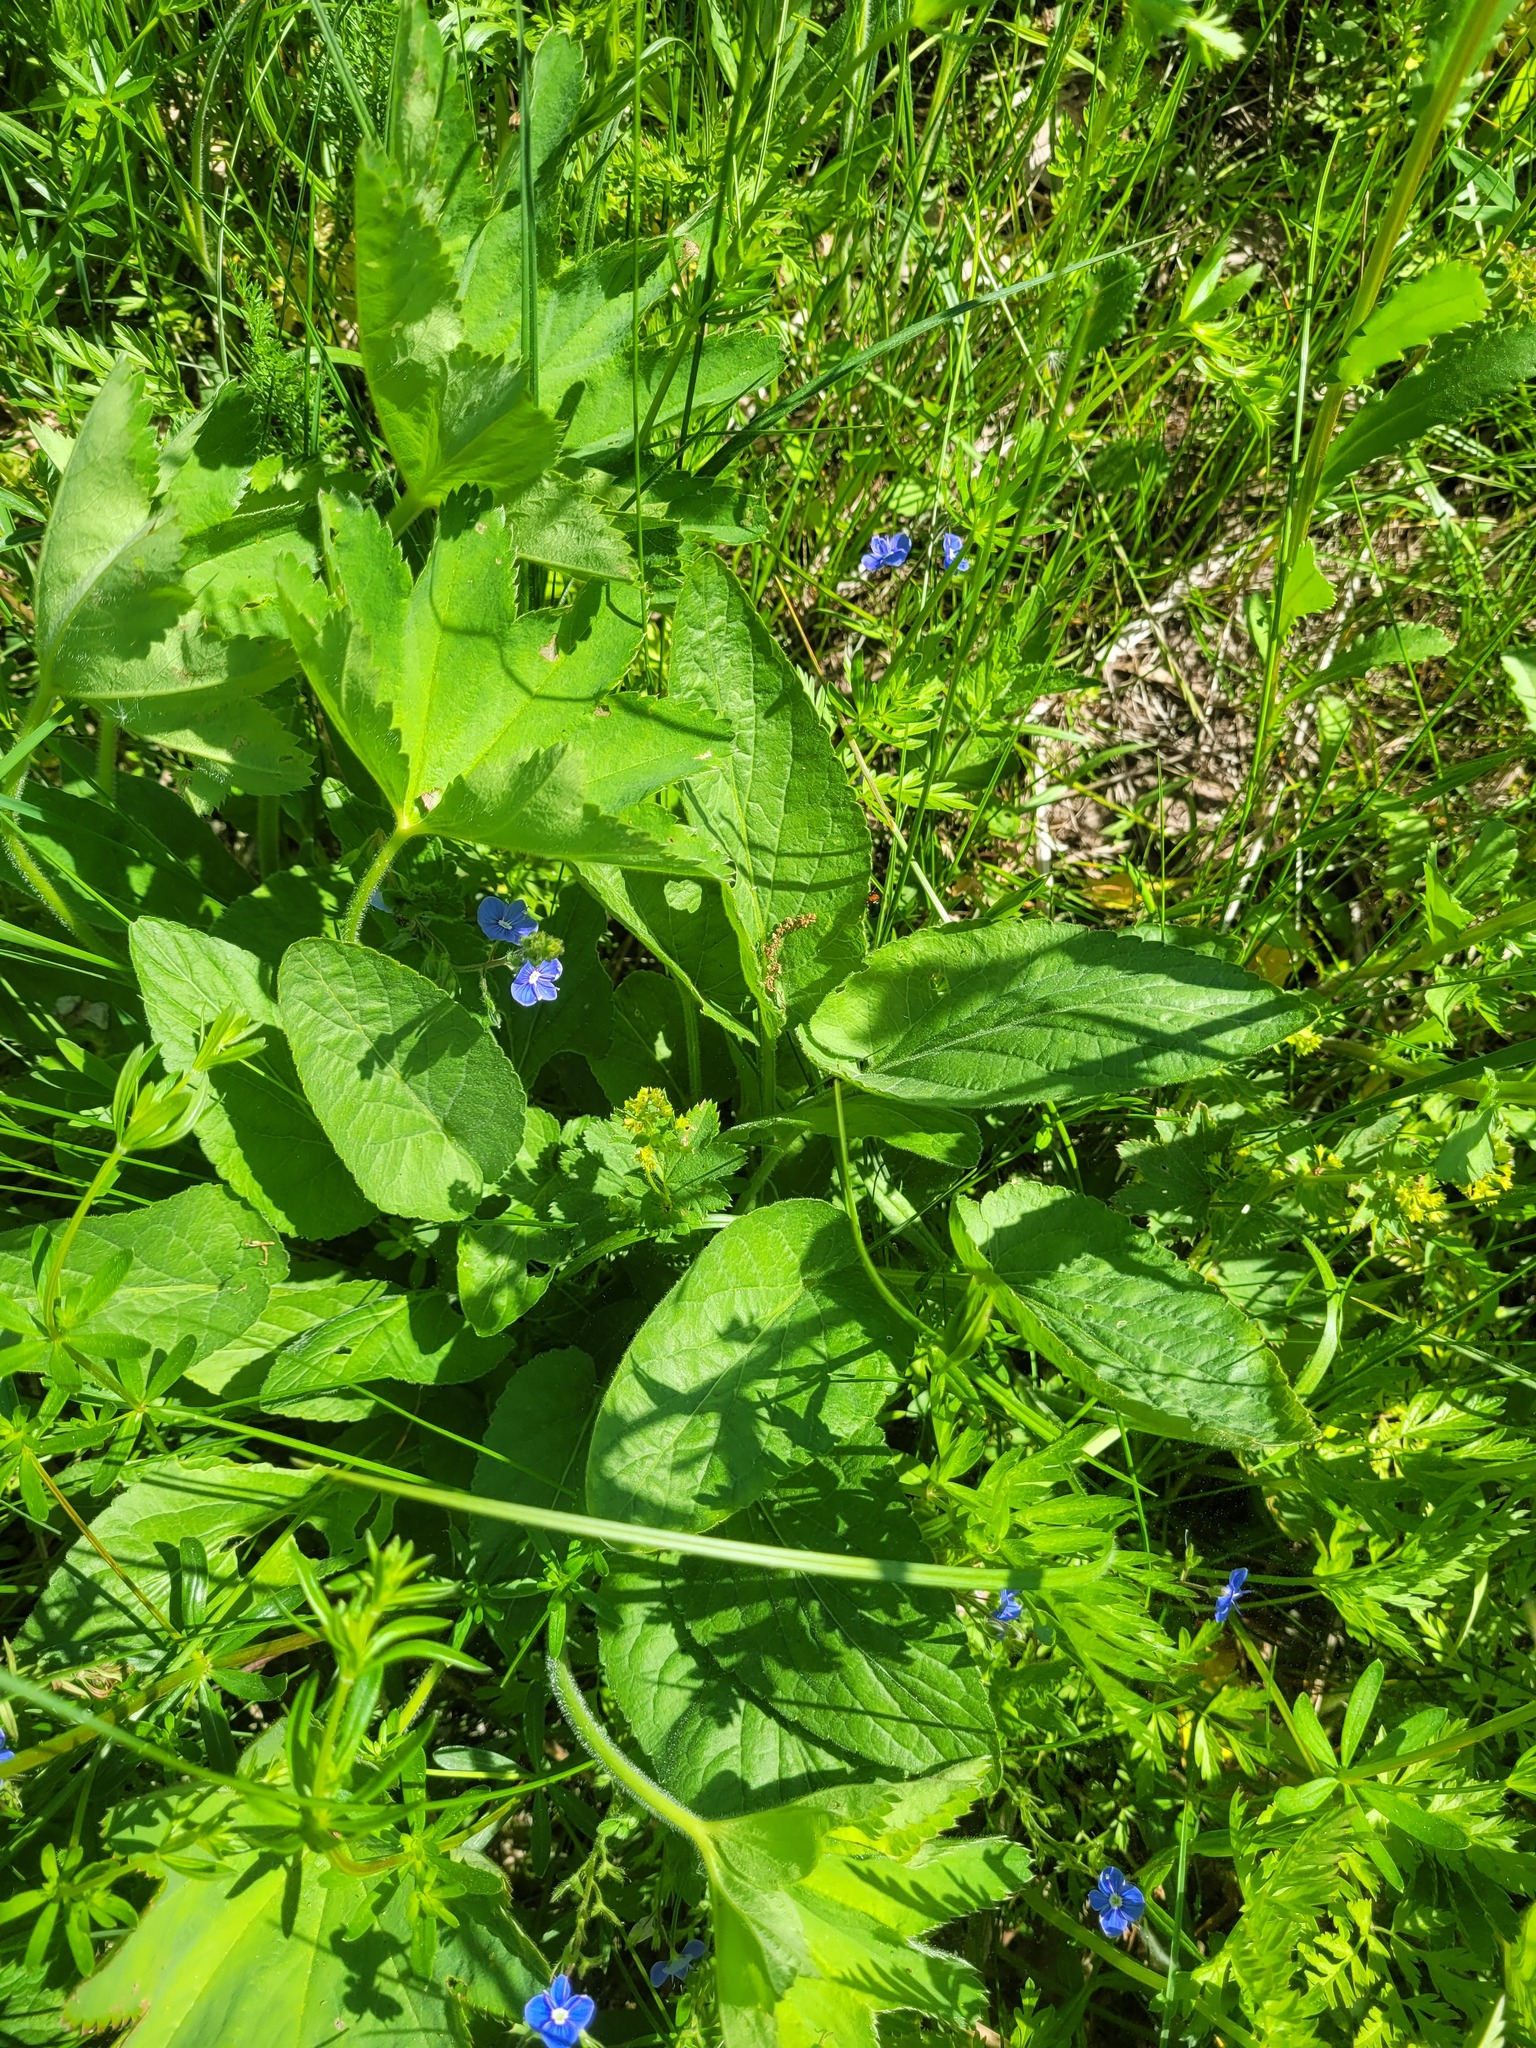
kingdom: Plantae
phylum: Tracheophyta
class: Magnoliopsida
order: Malpighiales
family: Violaceae
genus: Viola
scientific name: Viola hirta
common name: Hairy violet
